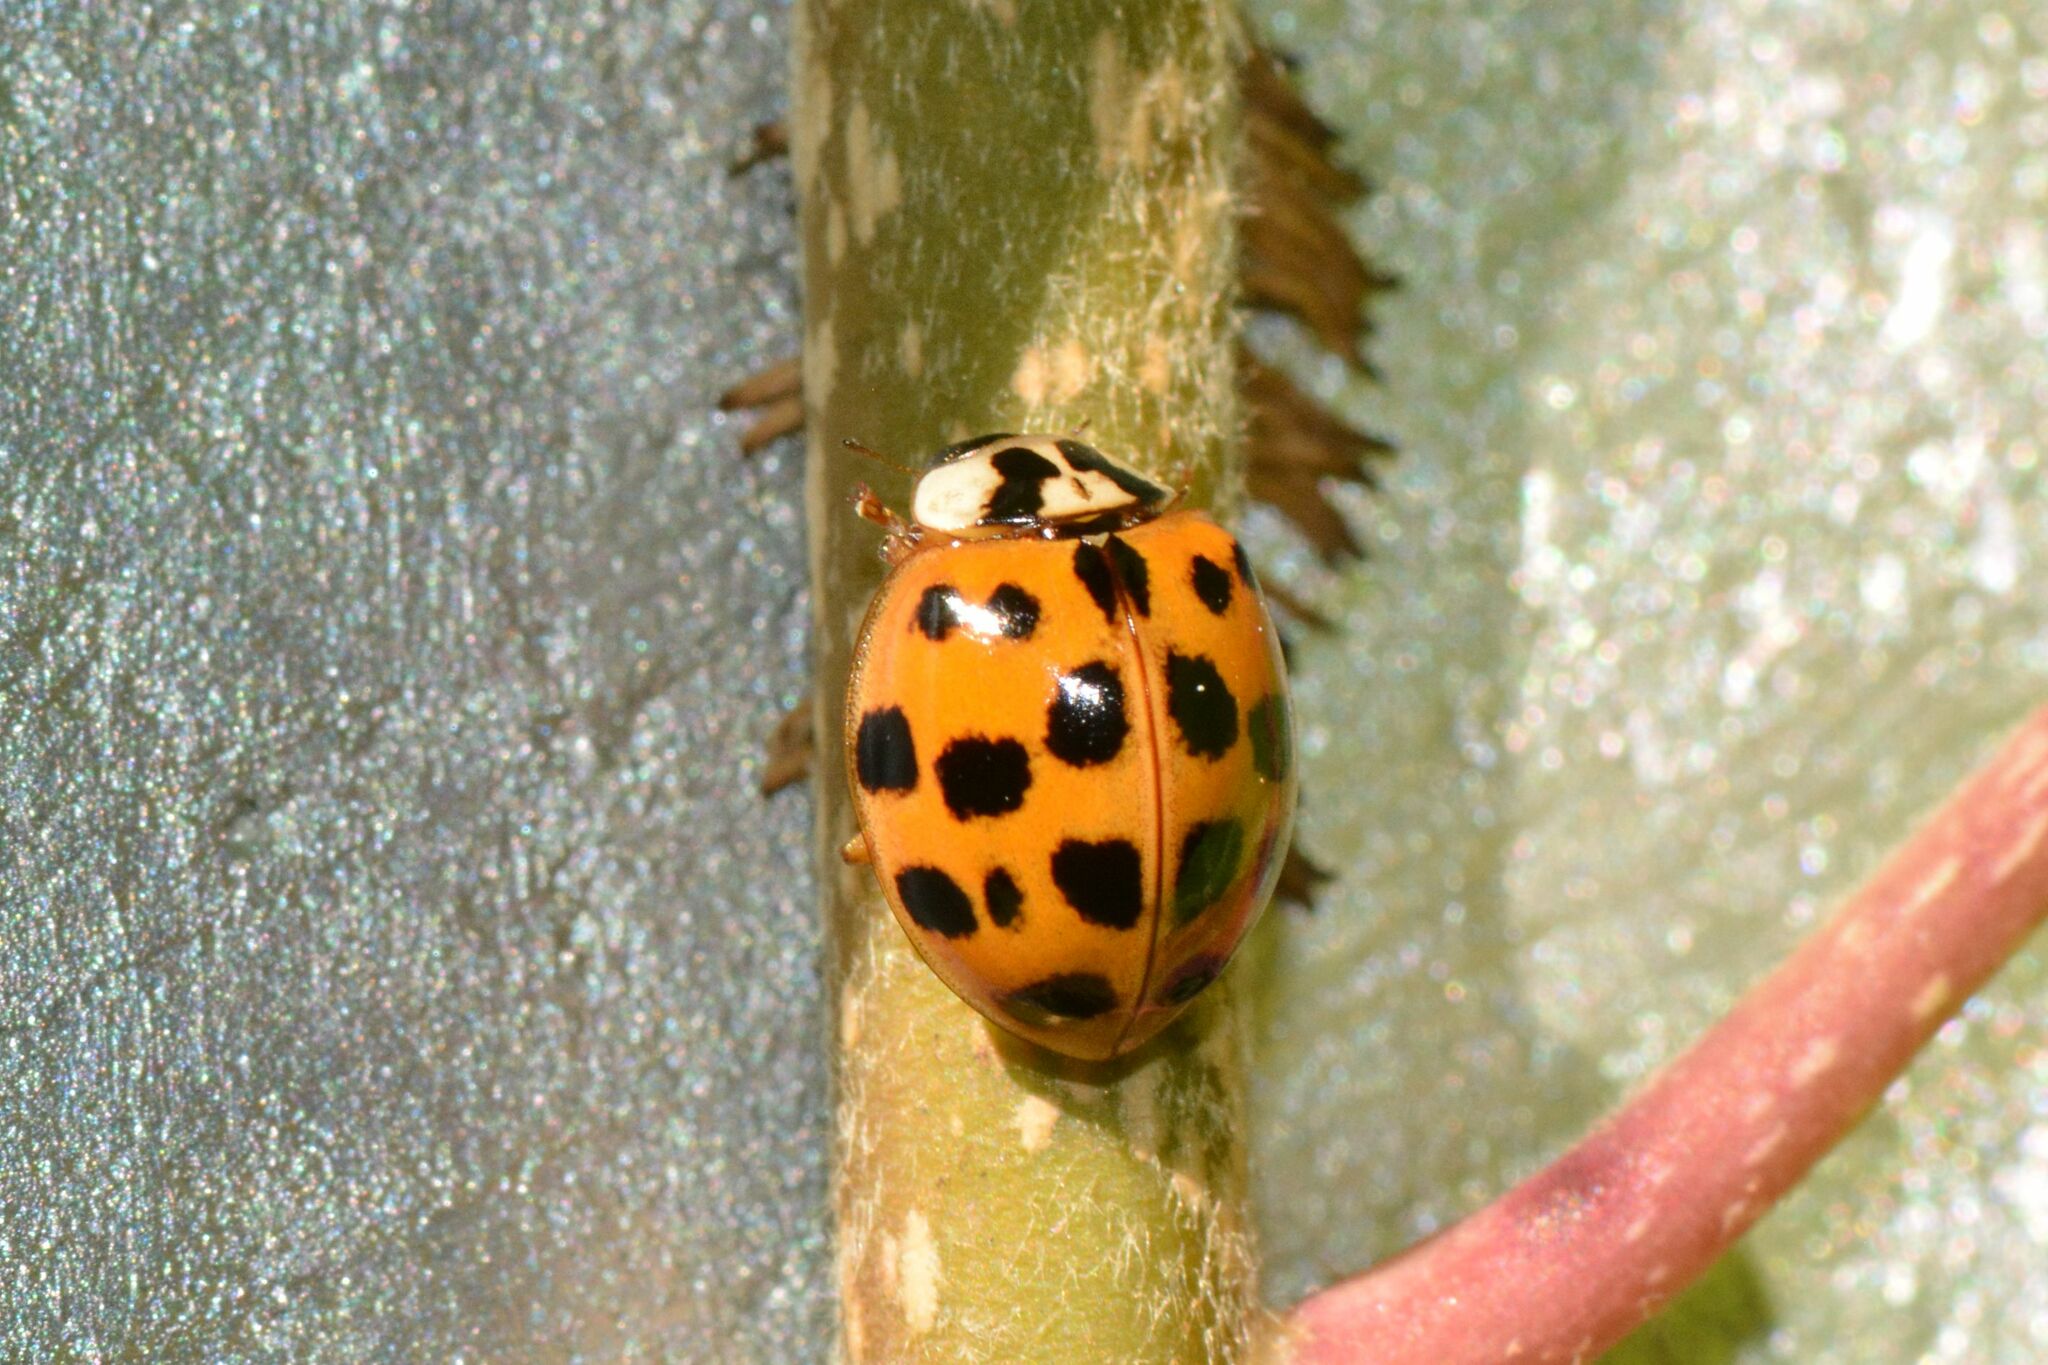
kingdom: Animalia
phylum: Arthropoda
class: Insecta
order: Coleoptera
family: Coccinellidae
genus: Harmonia
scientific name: Harmonia axyridis
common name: Harlequin ladybird
